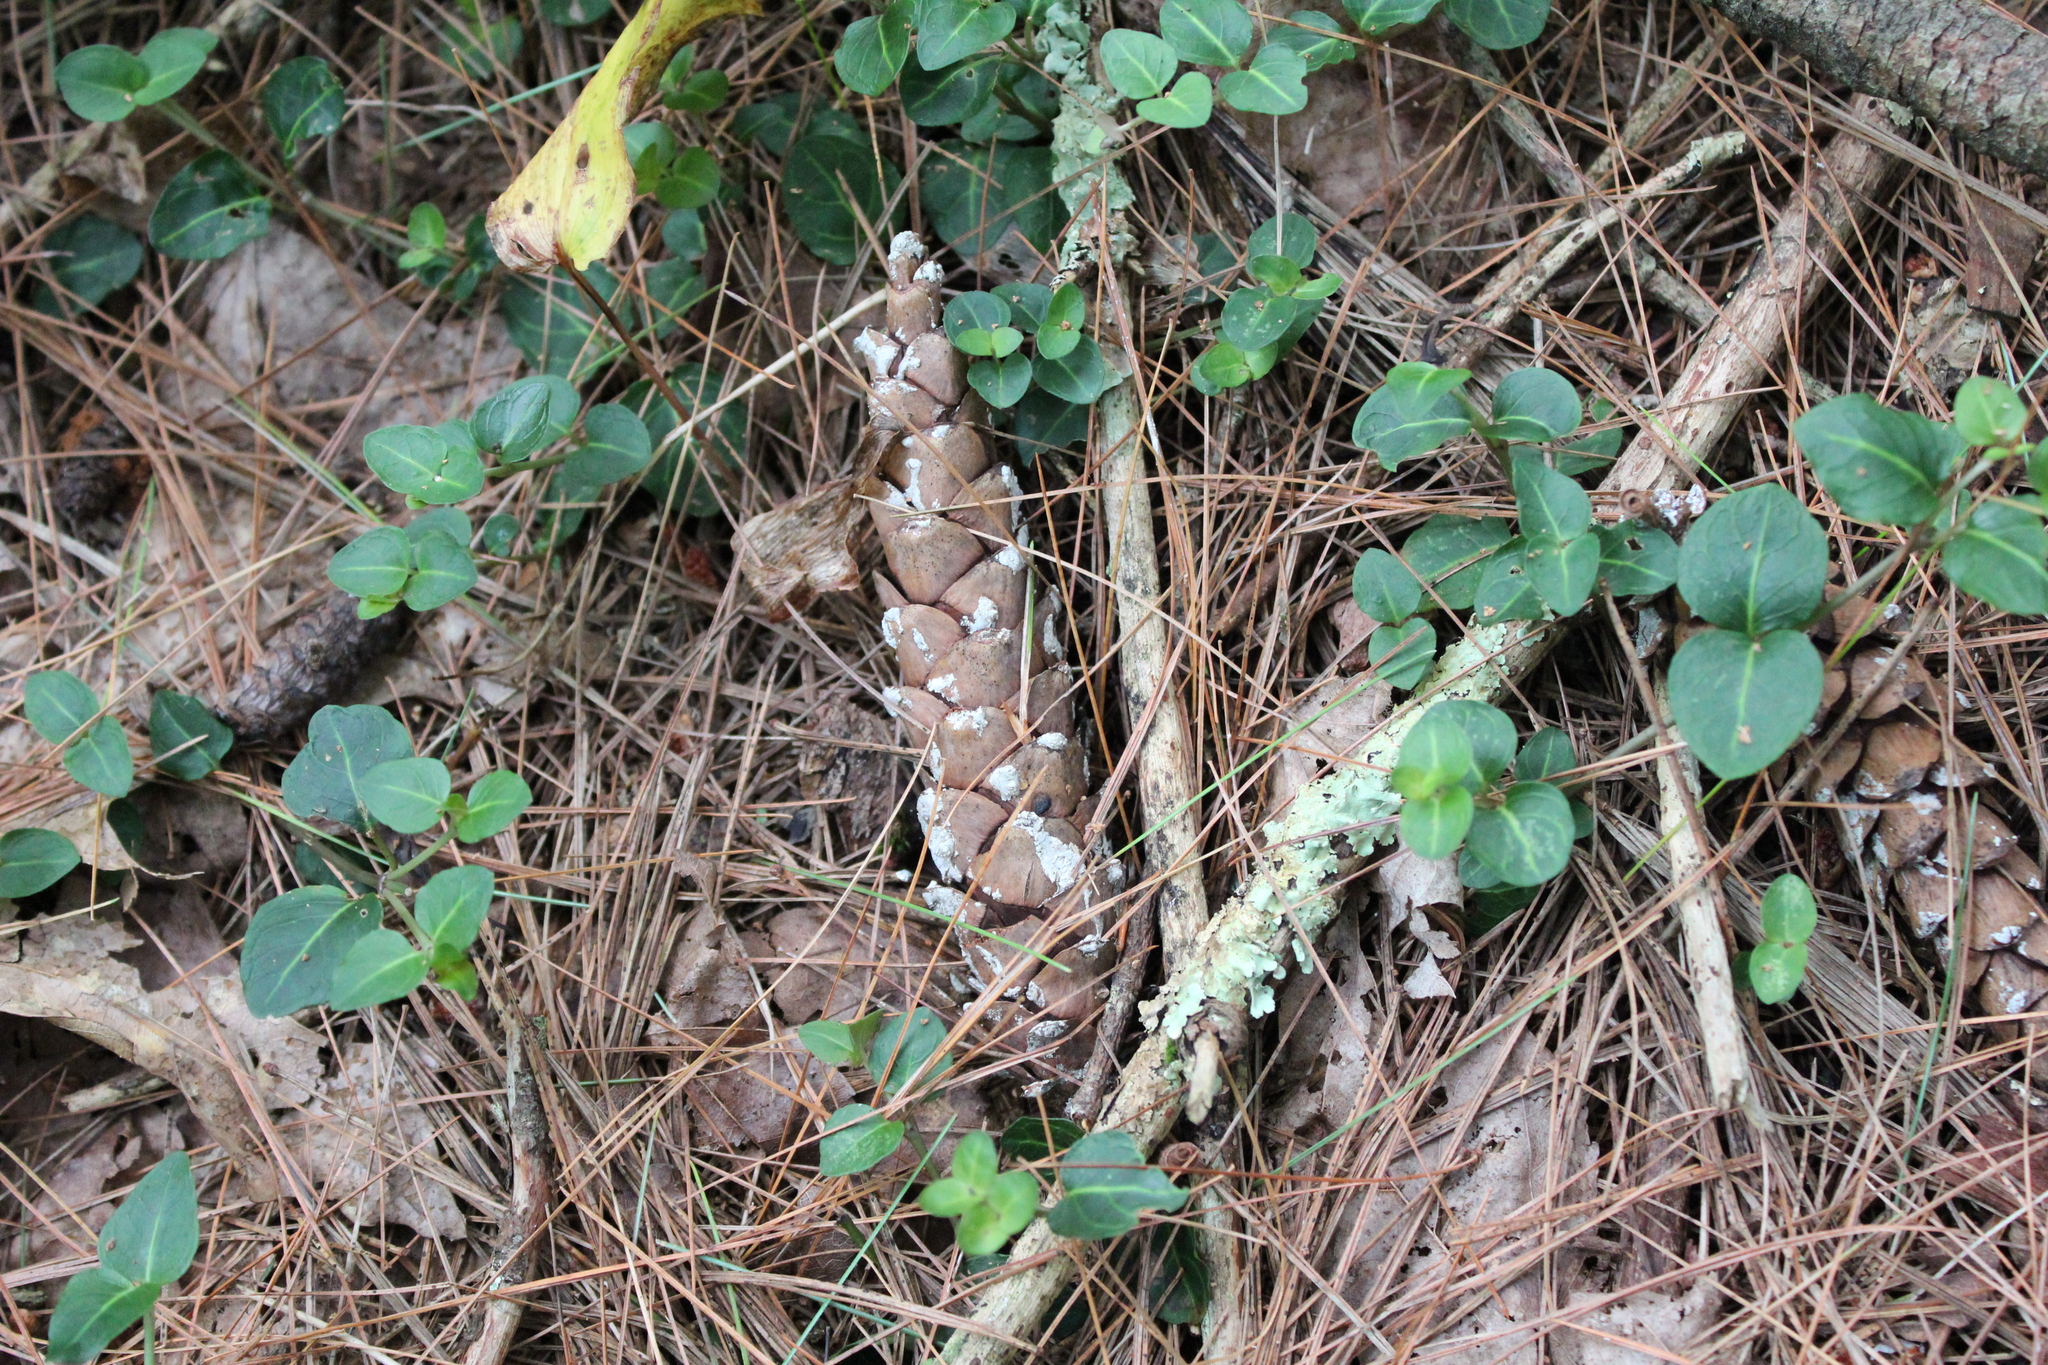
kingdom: Plantae
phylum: Tracheophyta
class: Pinopsida
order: Pinales
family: Pinaceae
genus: Pinus
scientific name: Pinus strobus
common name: Weymouth pine
